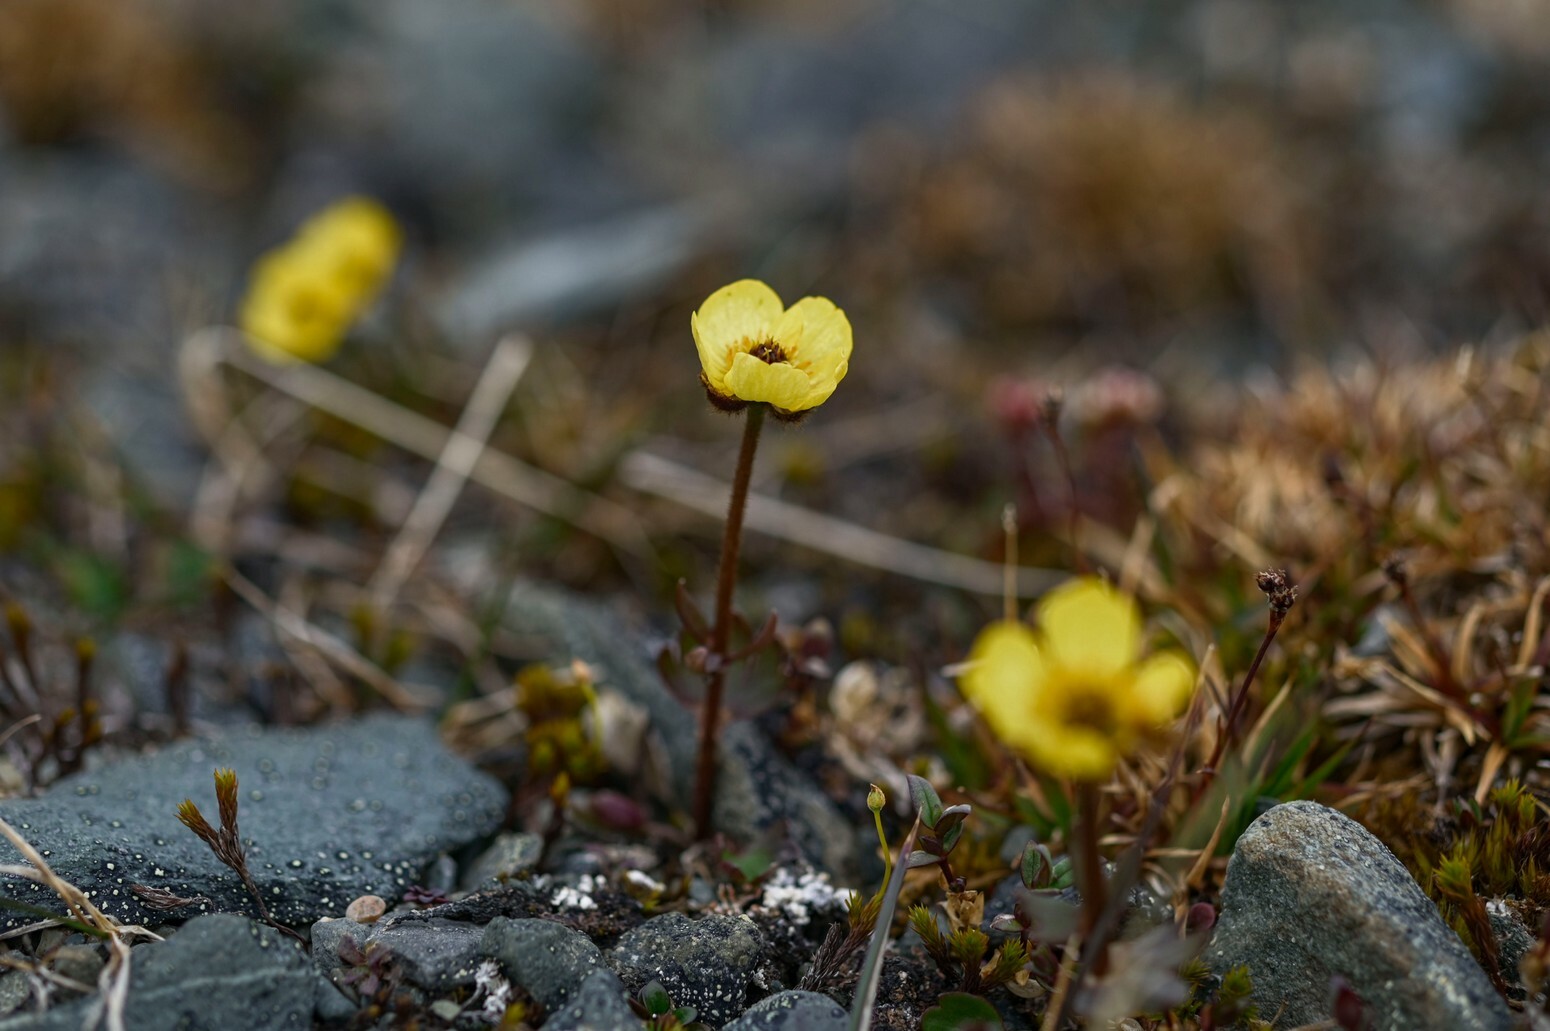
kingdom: Plantae
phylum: Tracheophyta
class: Magnoliopsida
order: Ranunculales
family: Ranunculaceae
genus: Ranunculus
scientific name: Ranunculus nivalis
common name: Snow buttercup
